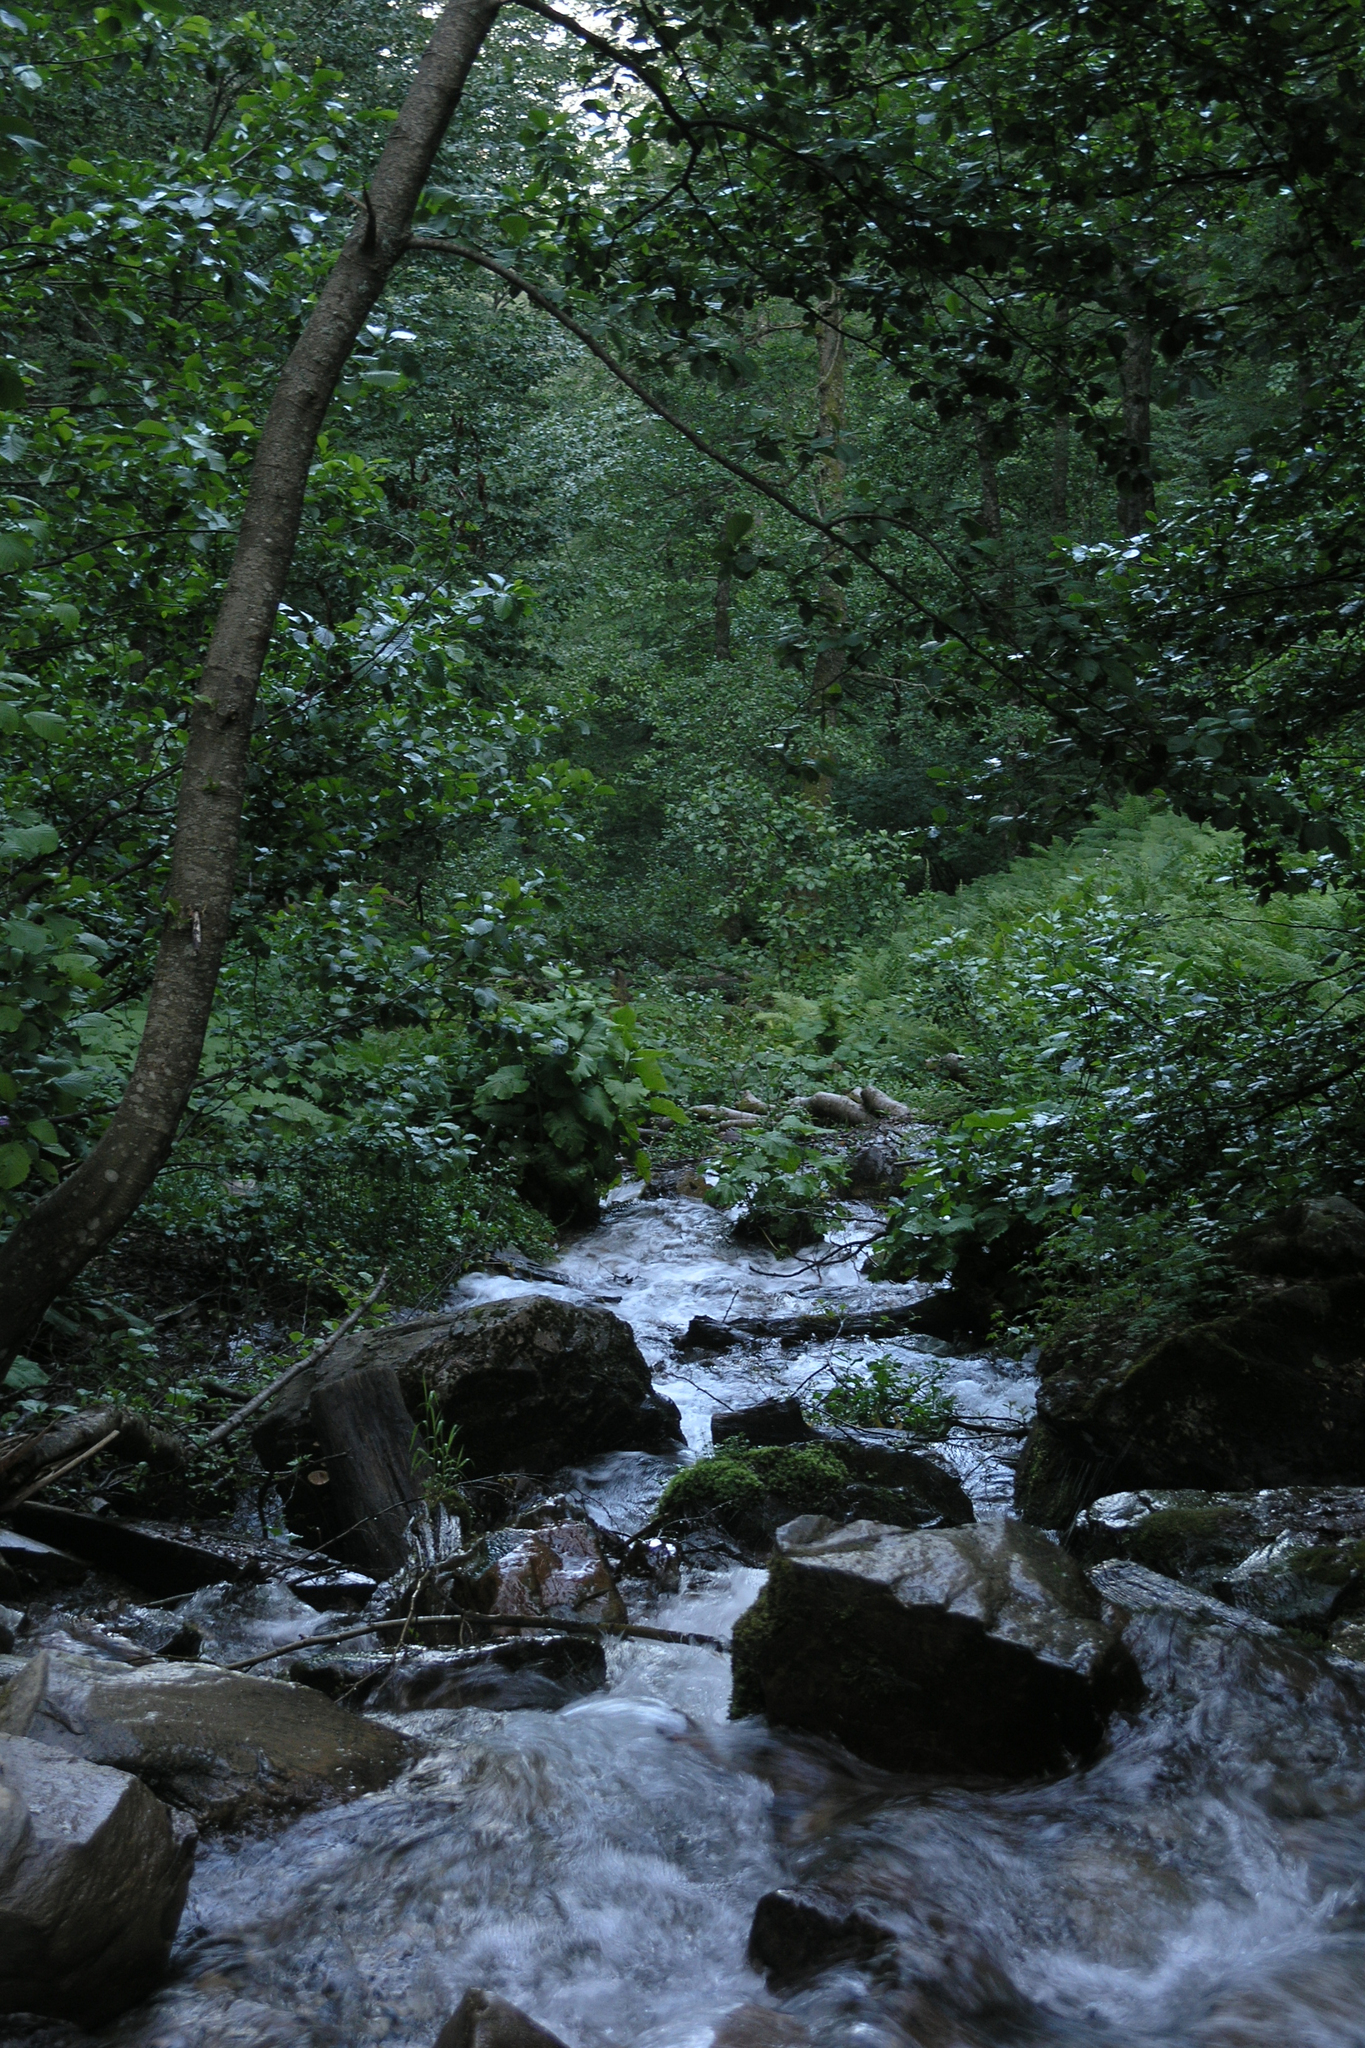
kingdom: Plantae
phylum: Tracheophyta
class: Magnoliopsida
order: Fagales
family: Betulaceae
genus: Alnus
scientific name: Alnus glutinosa
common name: Black alder
